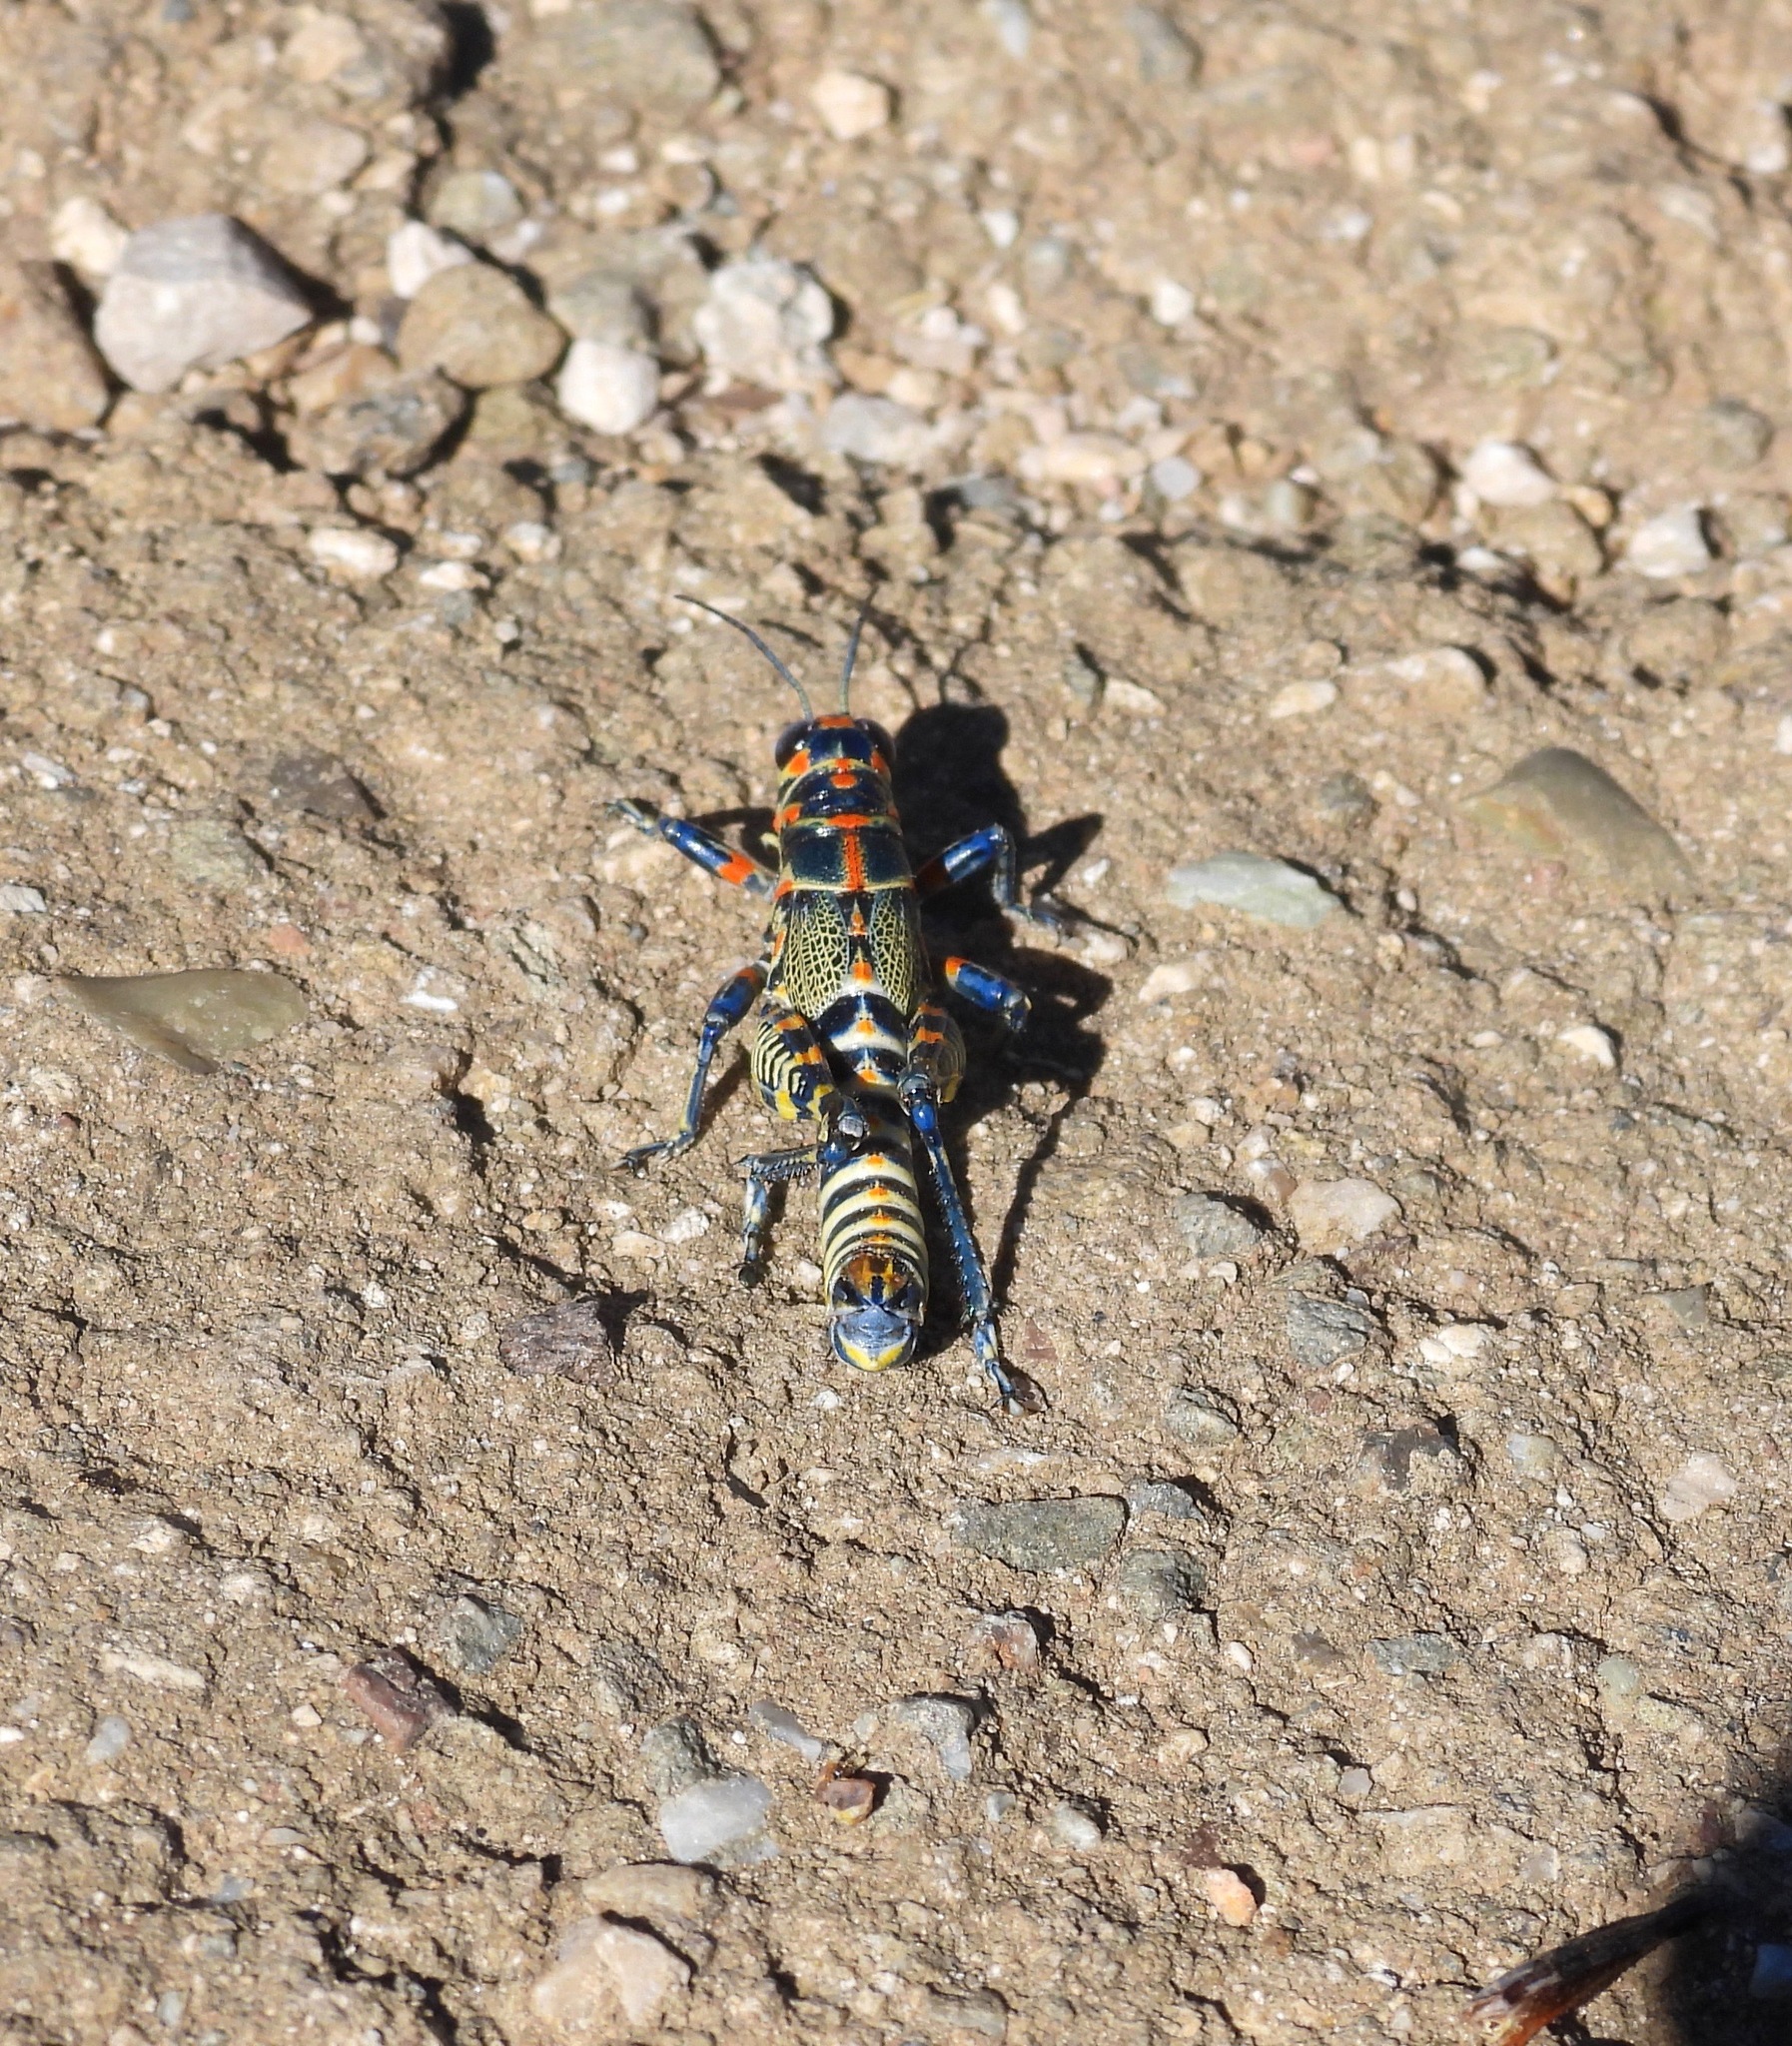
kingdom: Animalia
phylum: Arthropoda
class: Insecta
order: Orthoptera
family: Acrididae
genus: Dactylotum
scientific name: Dactylotum bicolor
